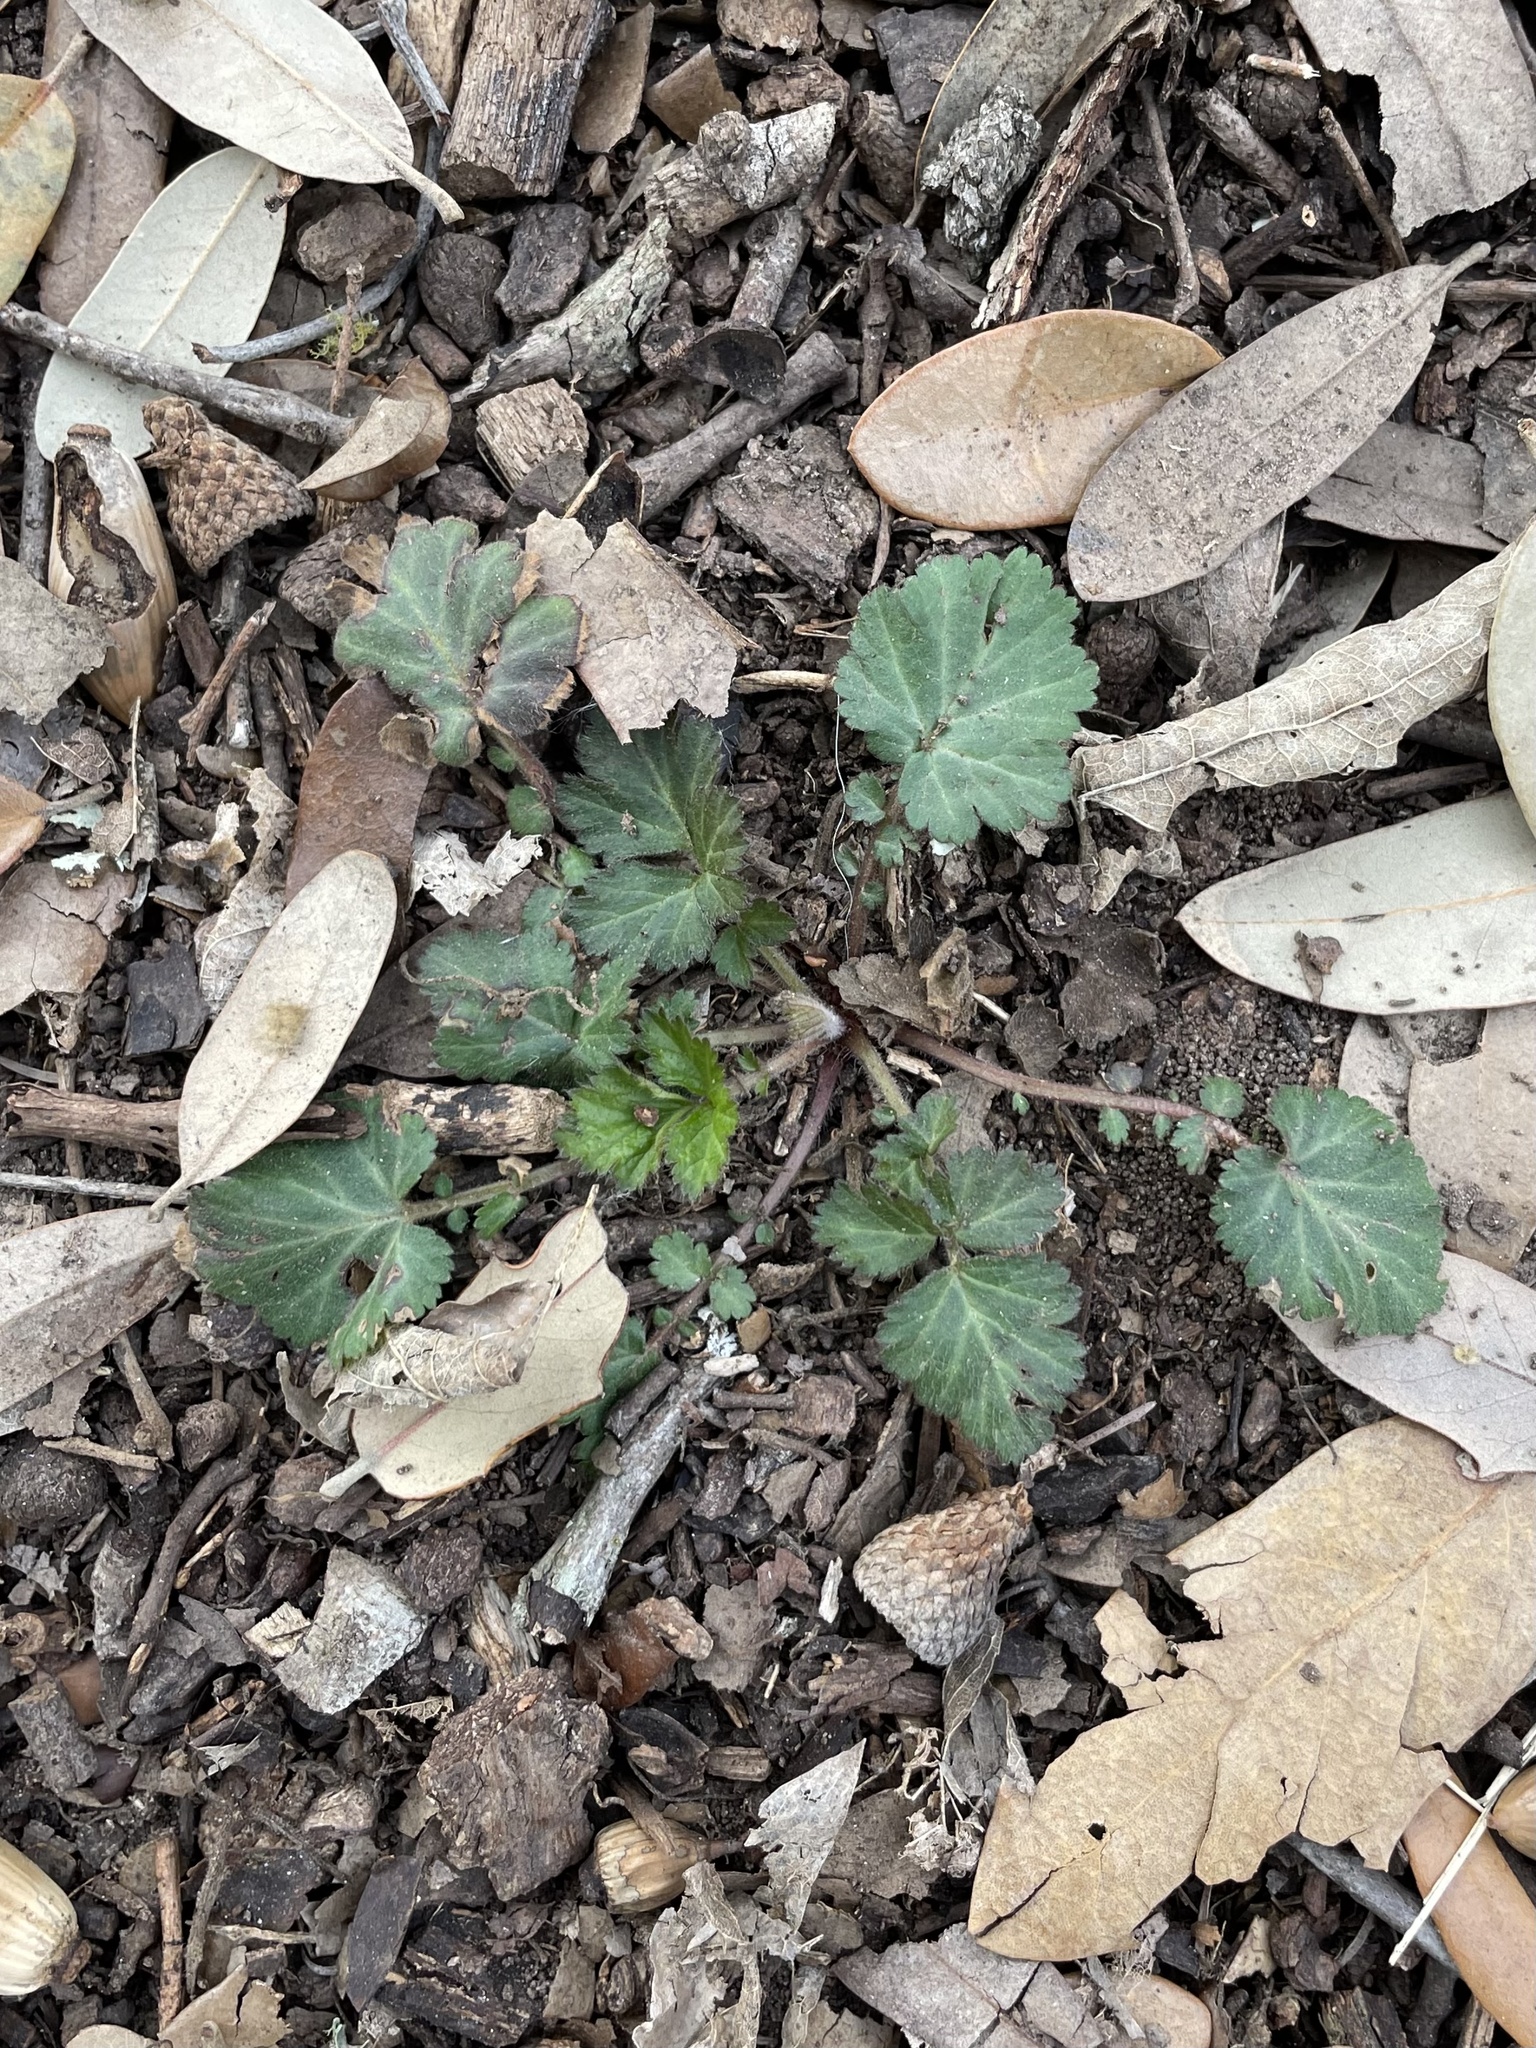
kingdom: Plantae
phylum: Tracheophyta
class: Magnoliopsida
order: Rosales
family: Rosaceae
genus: Geum
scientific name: Geum canadense
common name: White avens
